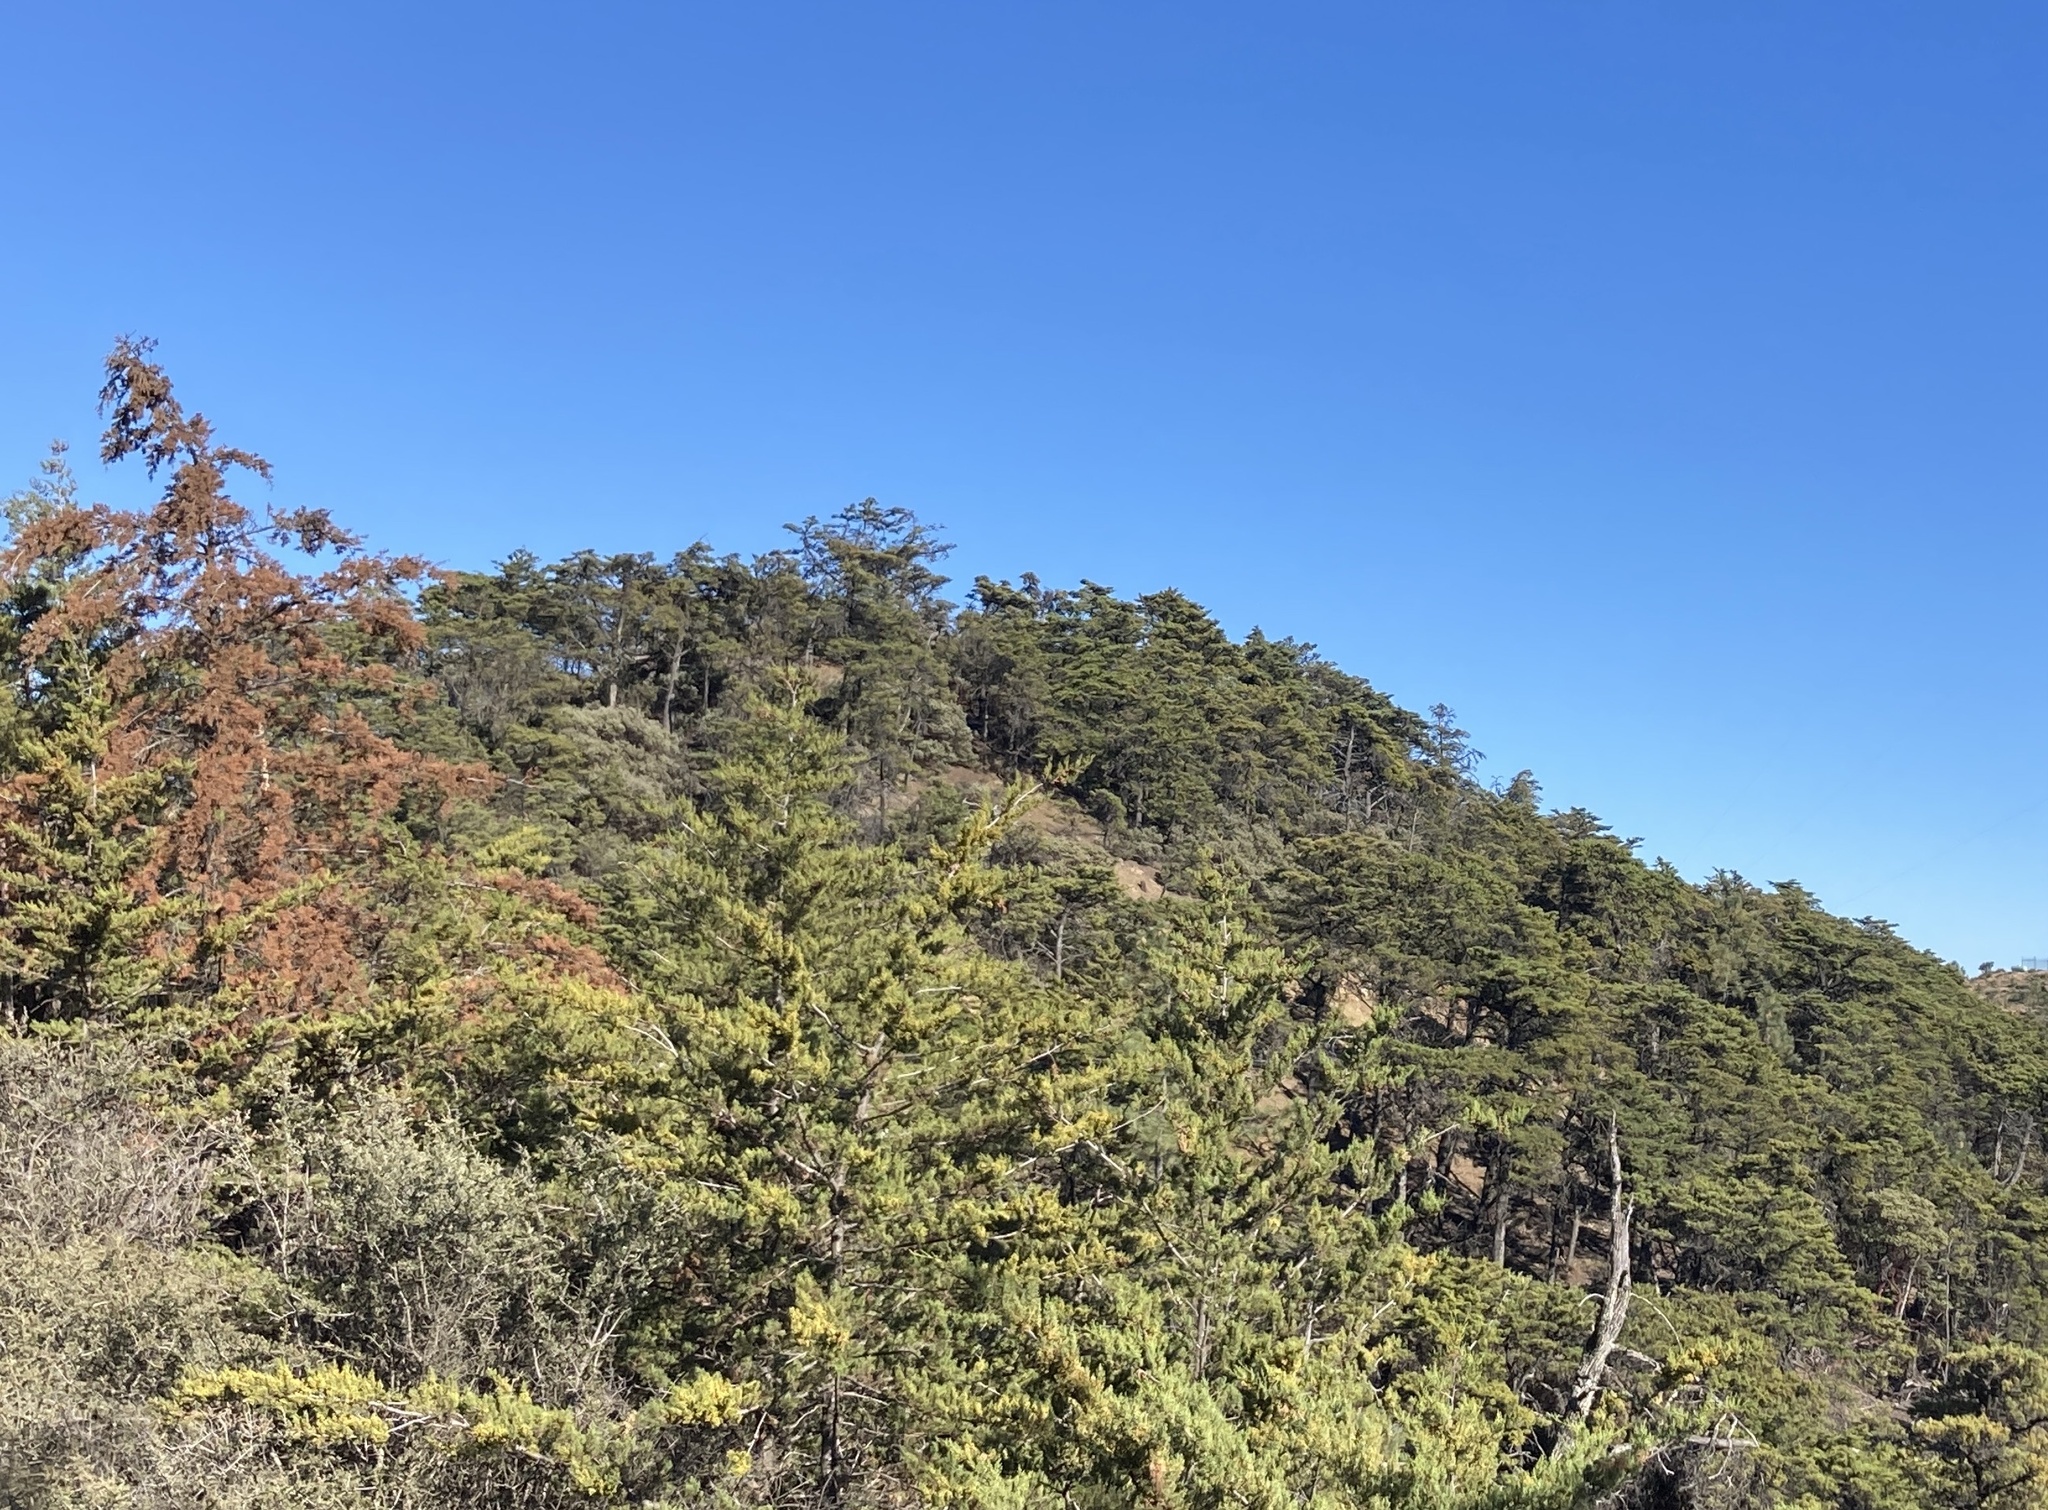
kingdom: Plantae
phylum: Tracheophyta
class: Pinopsida
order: Pinales
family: Cupressaceae
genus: Cupressus
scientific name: Cupressus sargentii
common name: Sargent cypress
